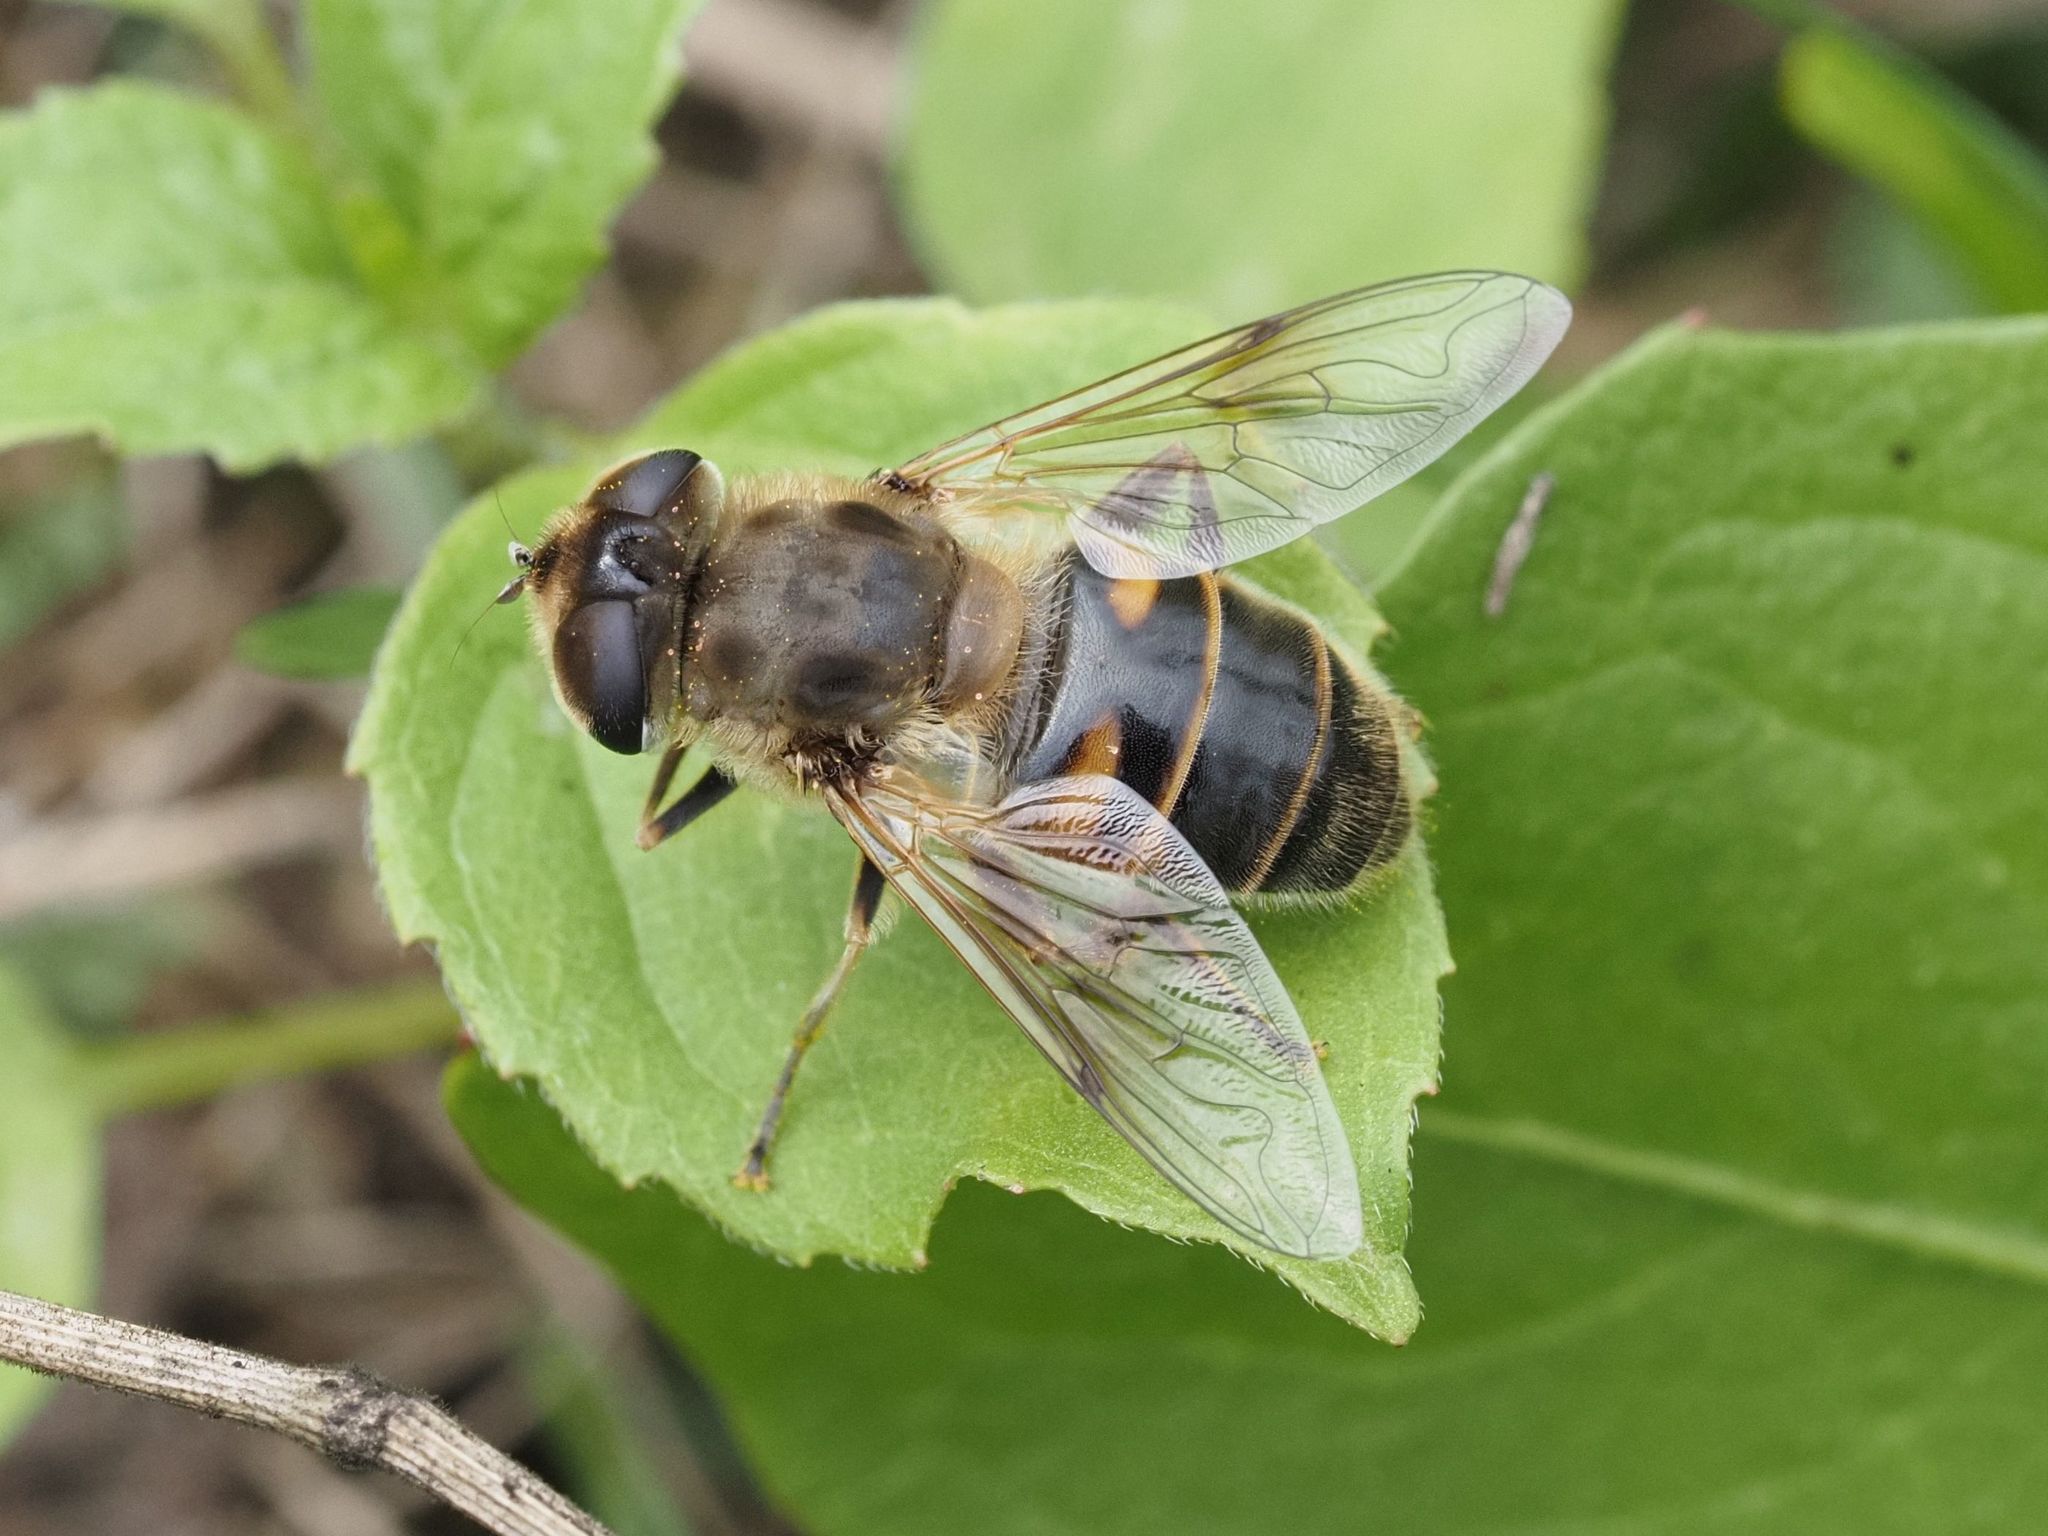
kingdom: Animalia
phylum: Arthropoda
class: Insecta
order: Diptera
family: Syrphidae
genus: Eristalis
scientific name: Eristalis tenax
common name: Drone fly
